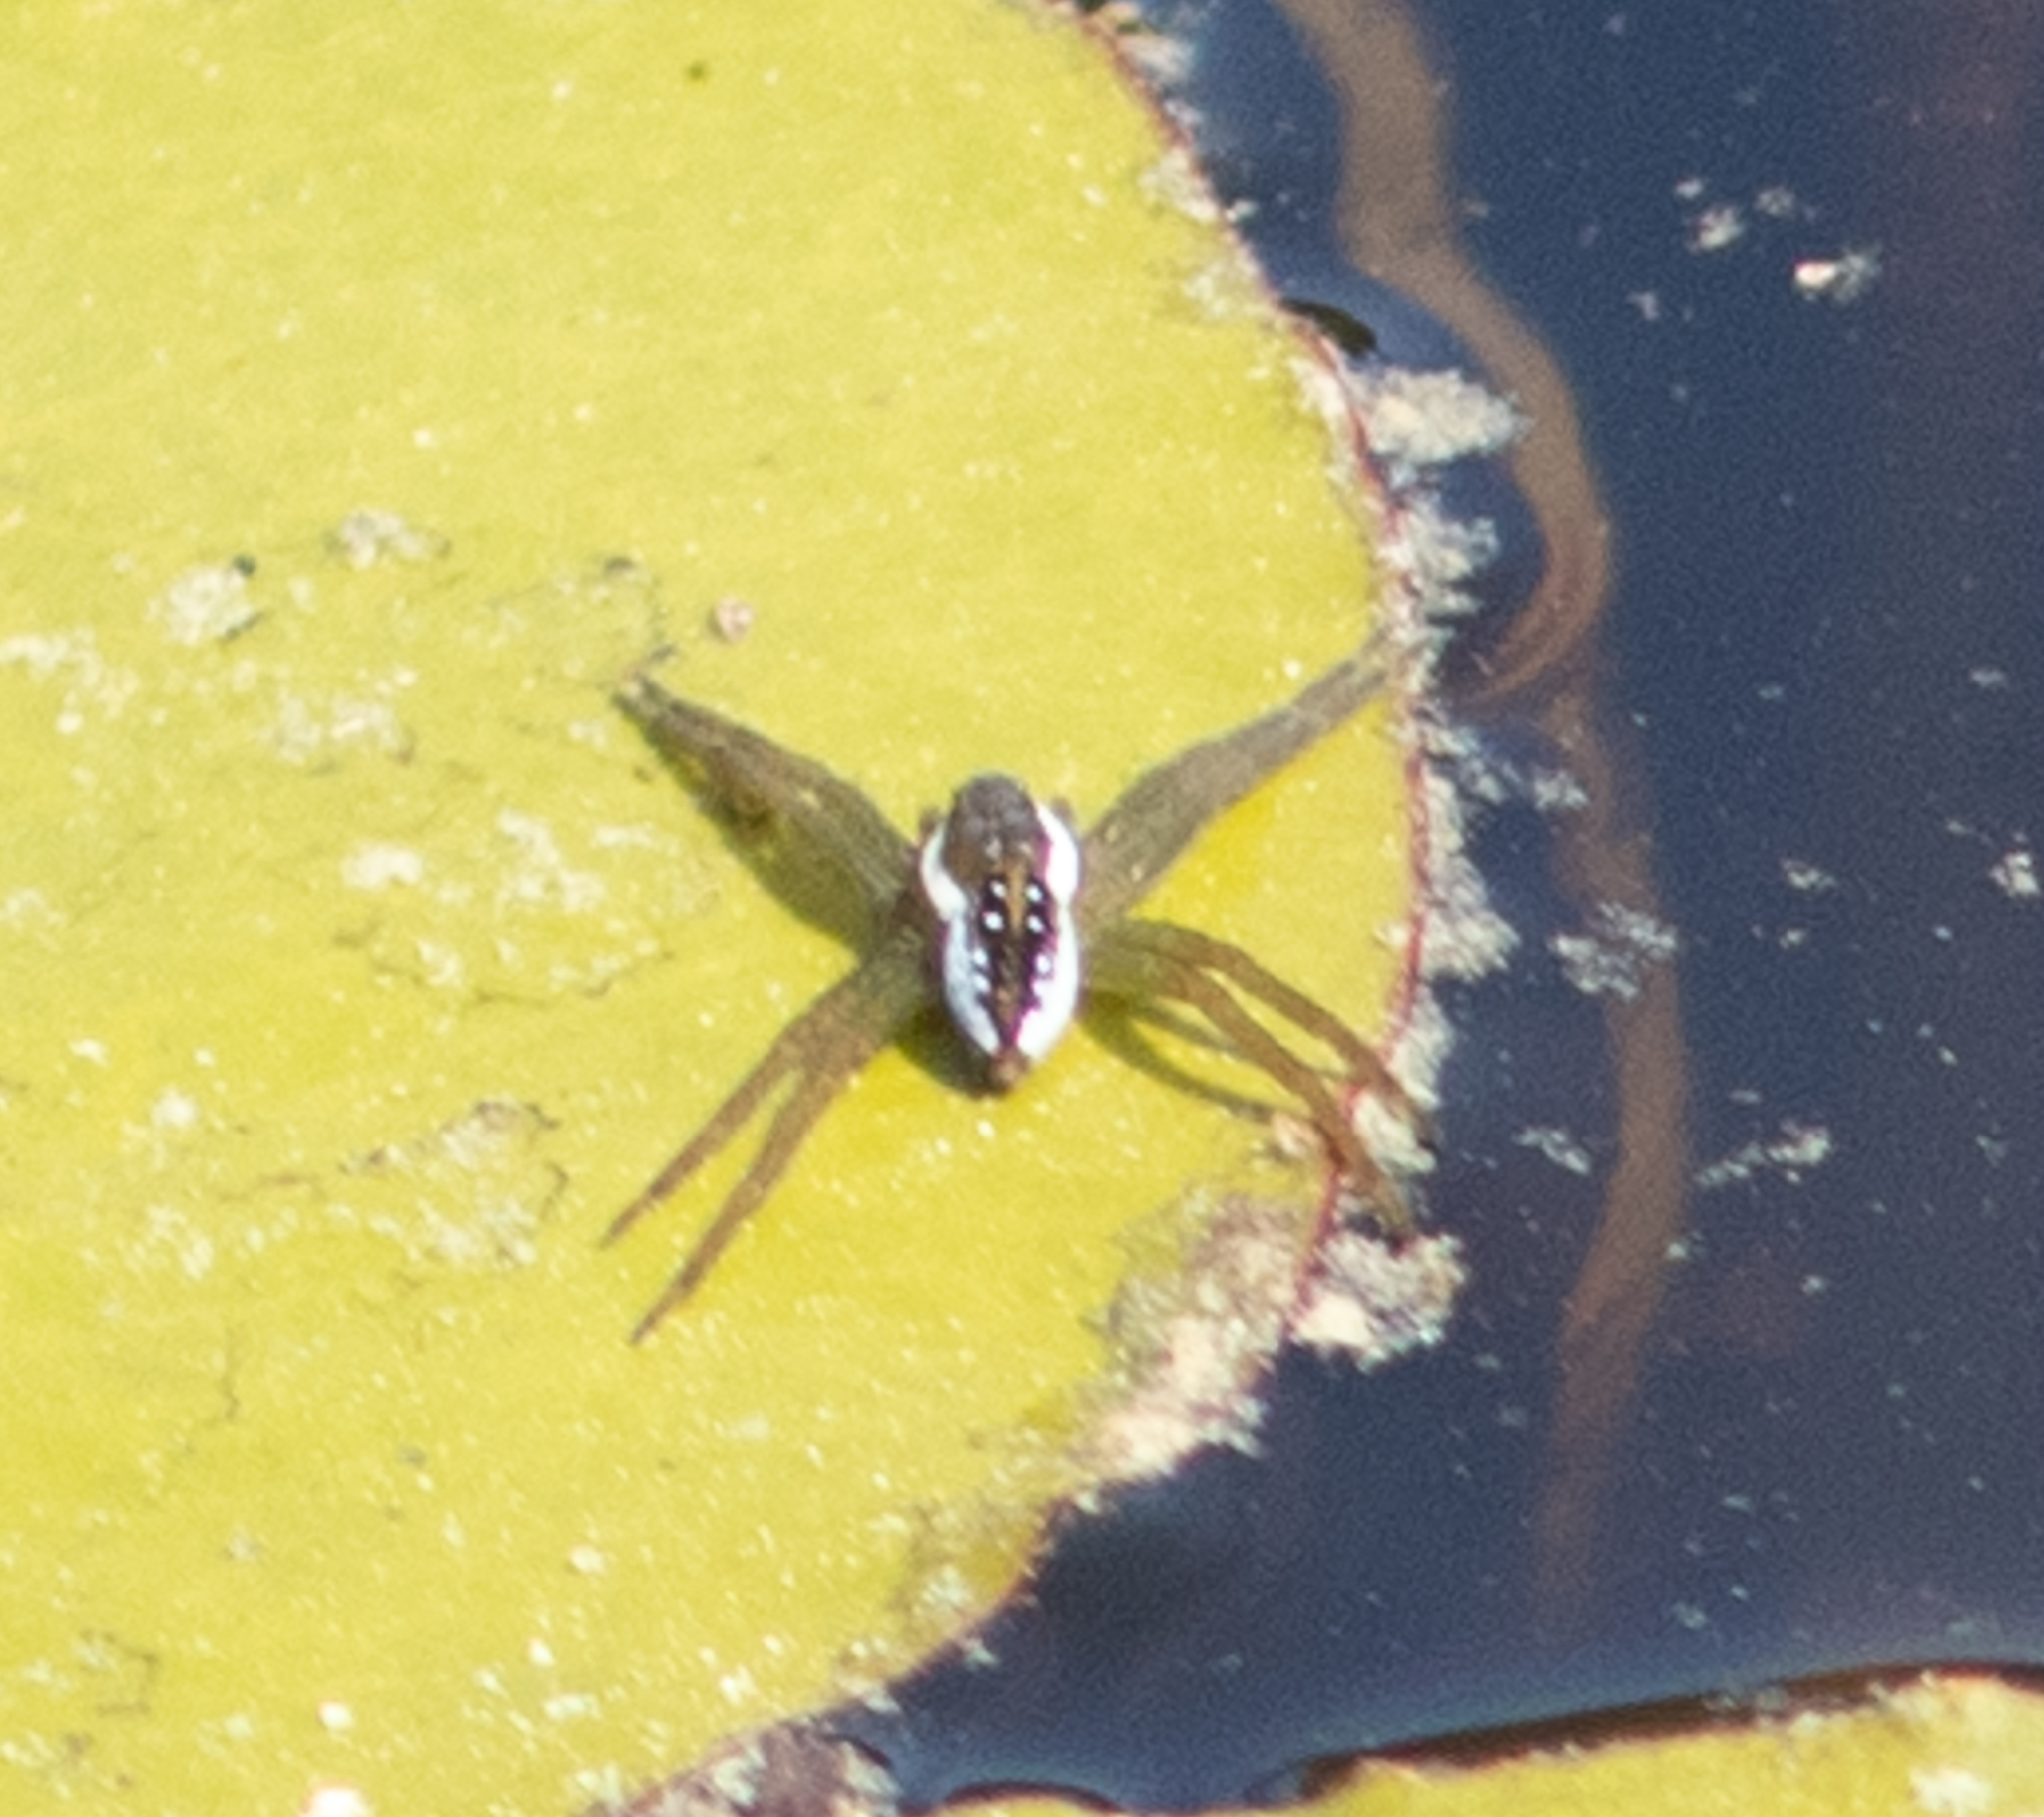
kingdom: Animalia
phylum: Arthropoda
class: Arachnida
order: Araneae
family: Pisauridae
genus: Dolomedes
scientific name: Dolomedes triton
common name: Six-spotted fishing spider
